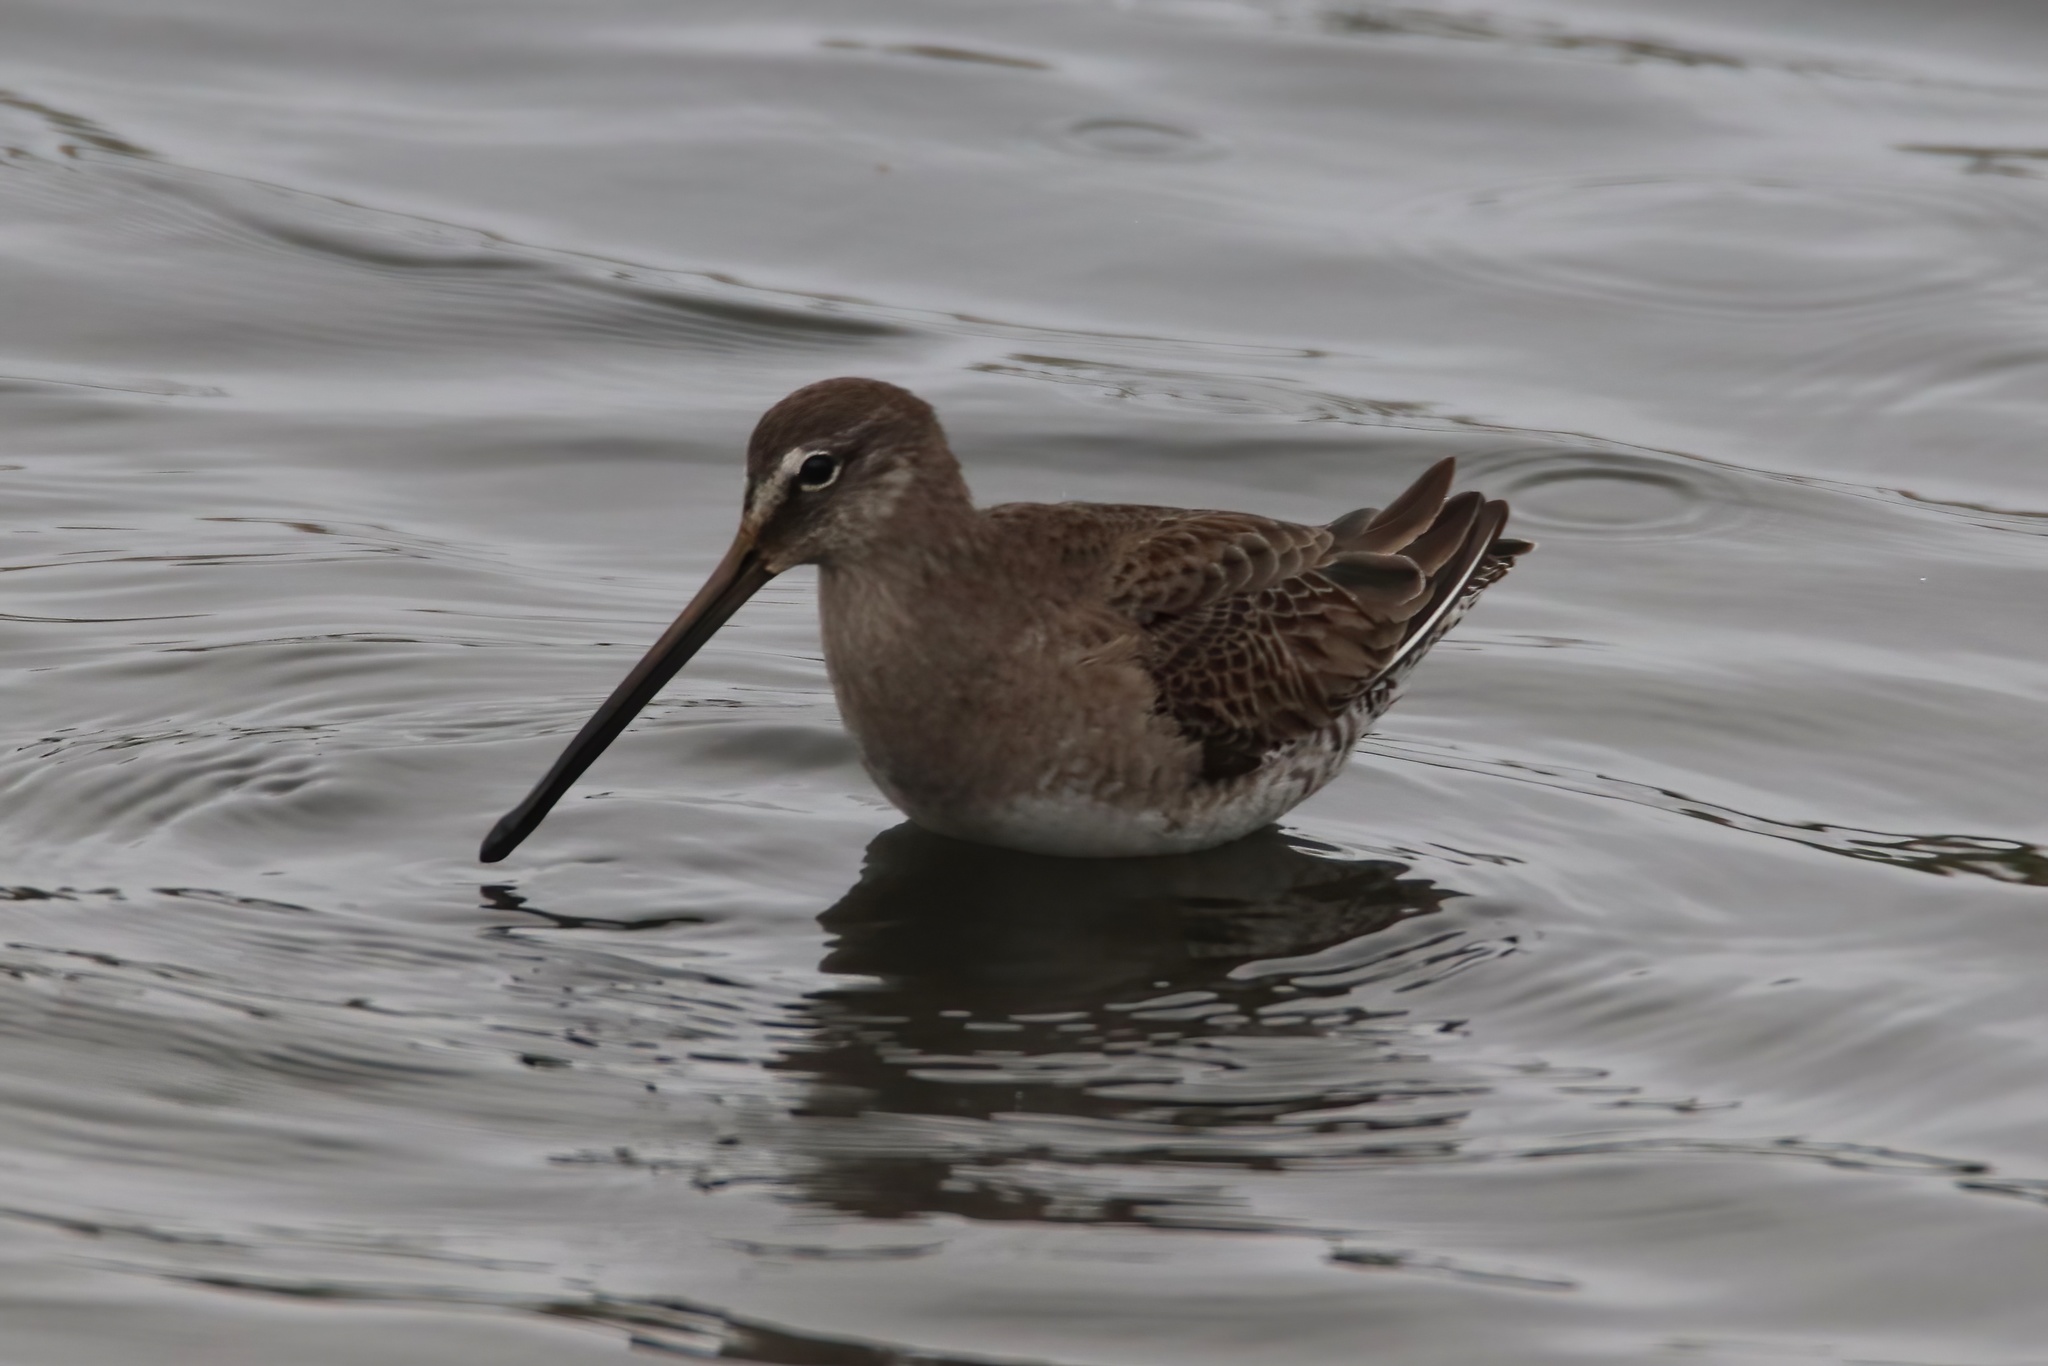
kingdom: Animalia
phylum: Chordata
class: Aves
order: Charadriiformes
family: Scolopacidae
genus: Limnodromus
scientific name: Limnodromus scolopaceus
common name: Long-billed dowitcher
